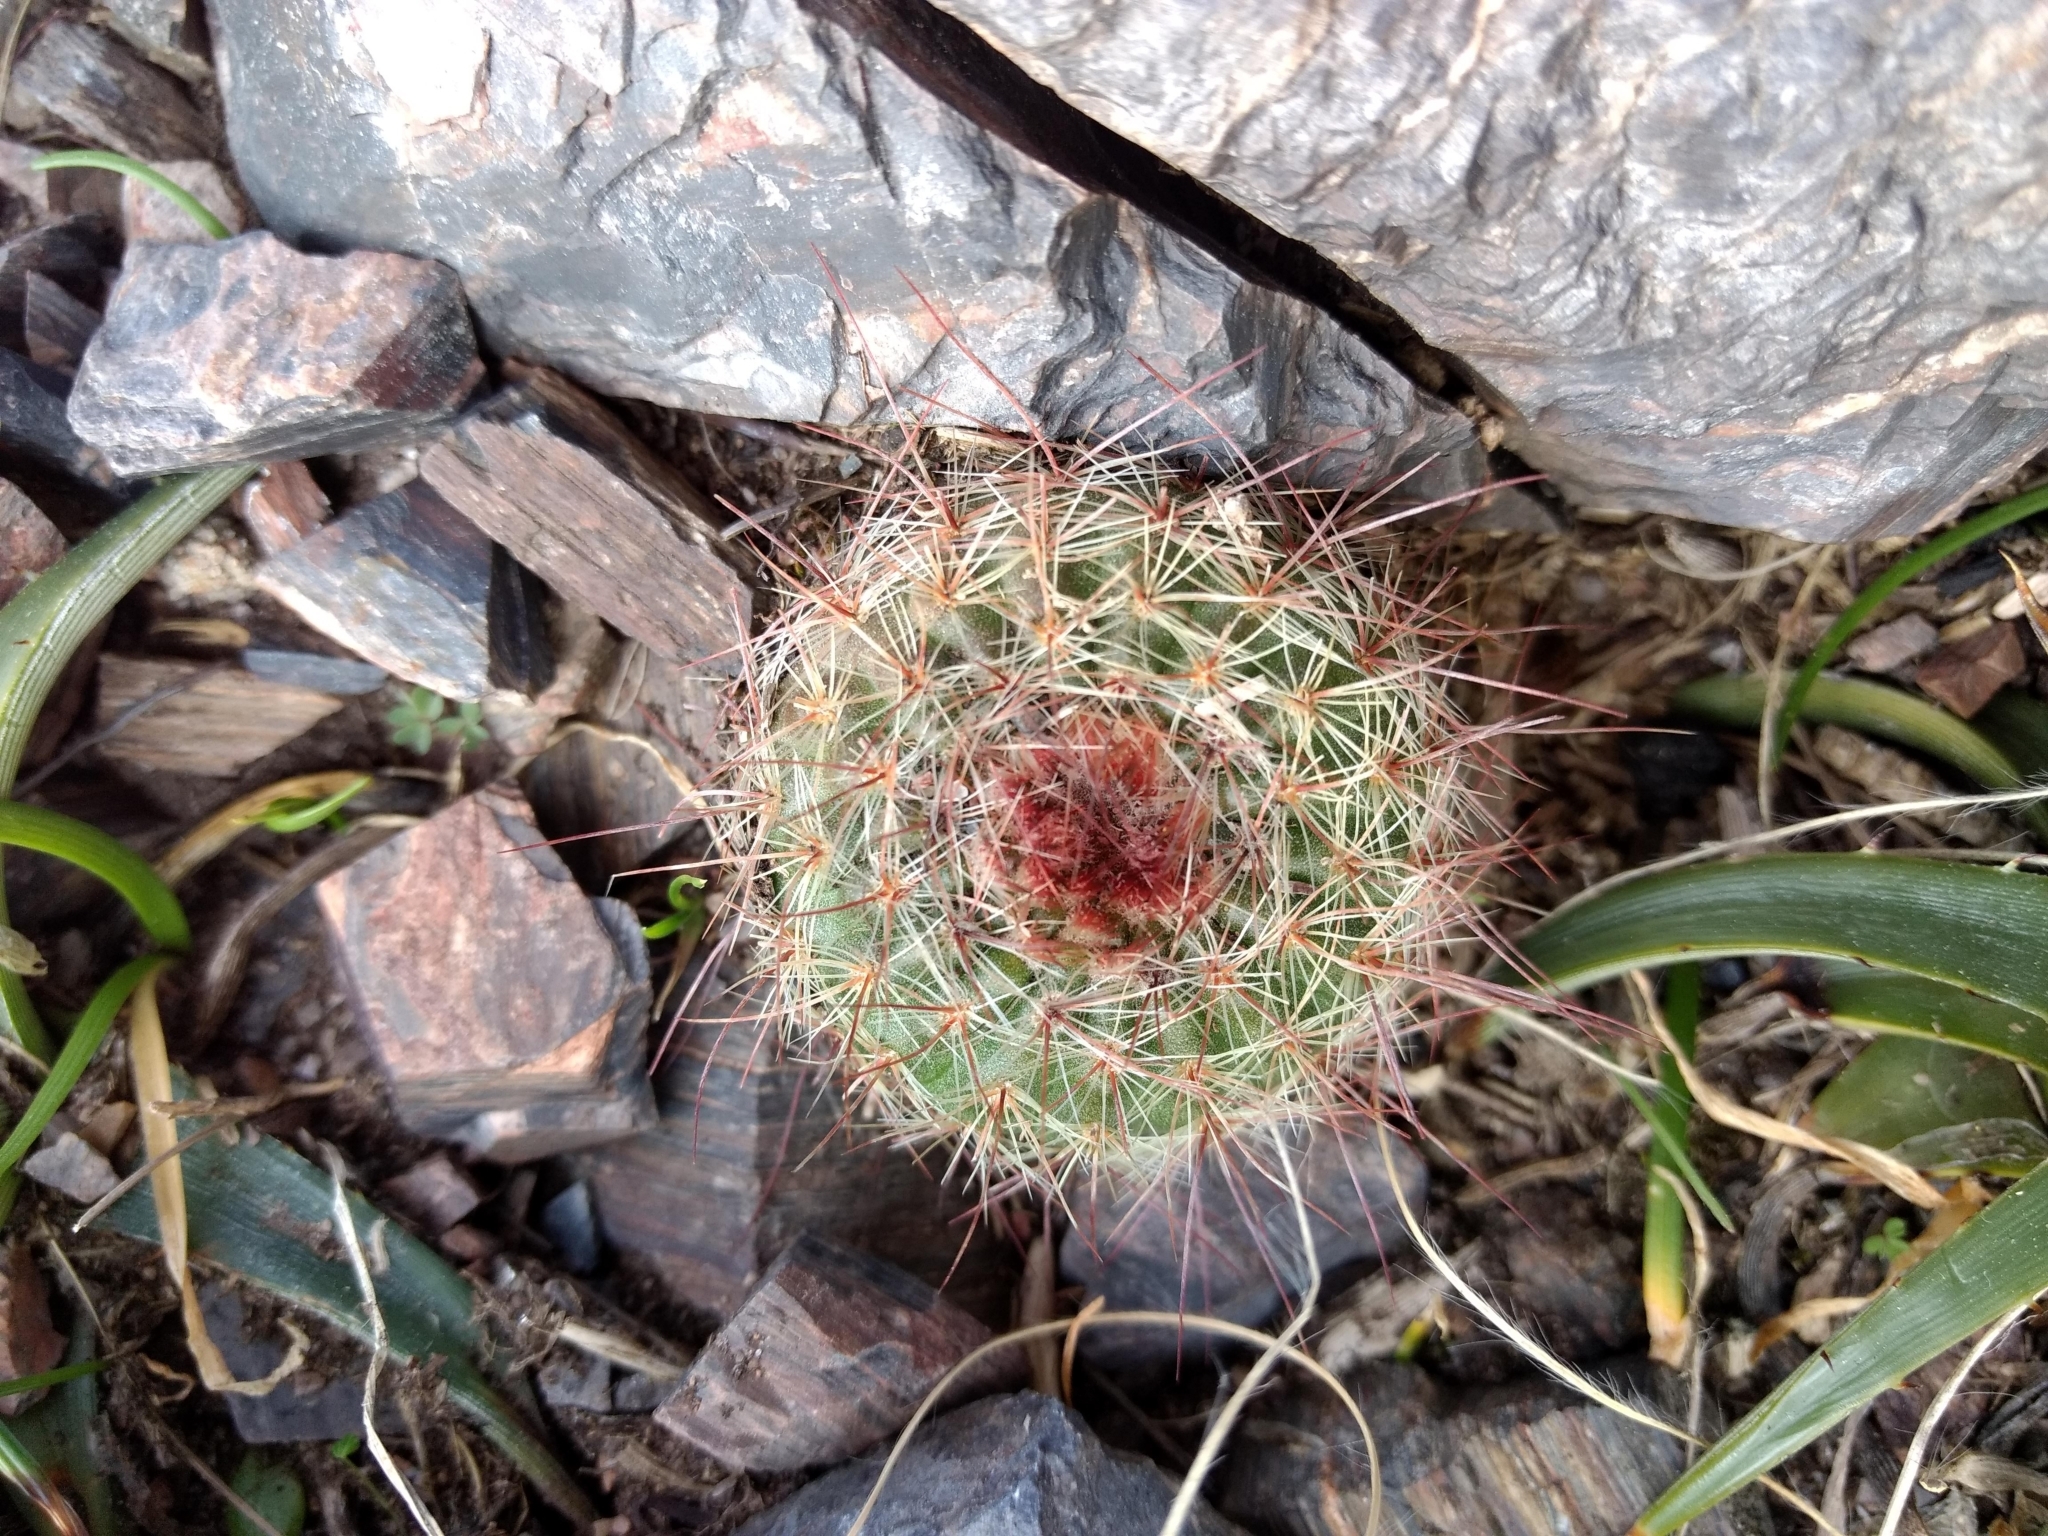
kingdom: Plantae
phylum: Tracheophyta
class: Magnoliopsida
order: Caryophyllales
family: Cactaceae
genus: Parodia
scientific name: Parodia concinna
